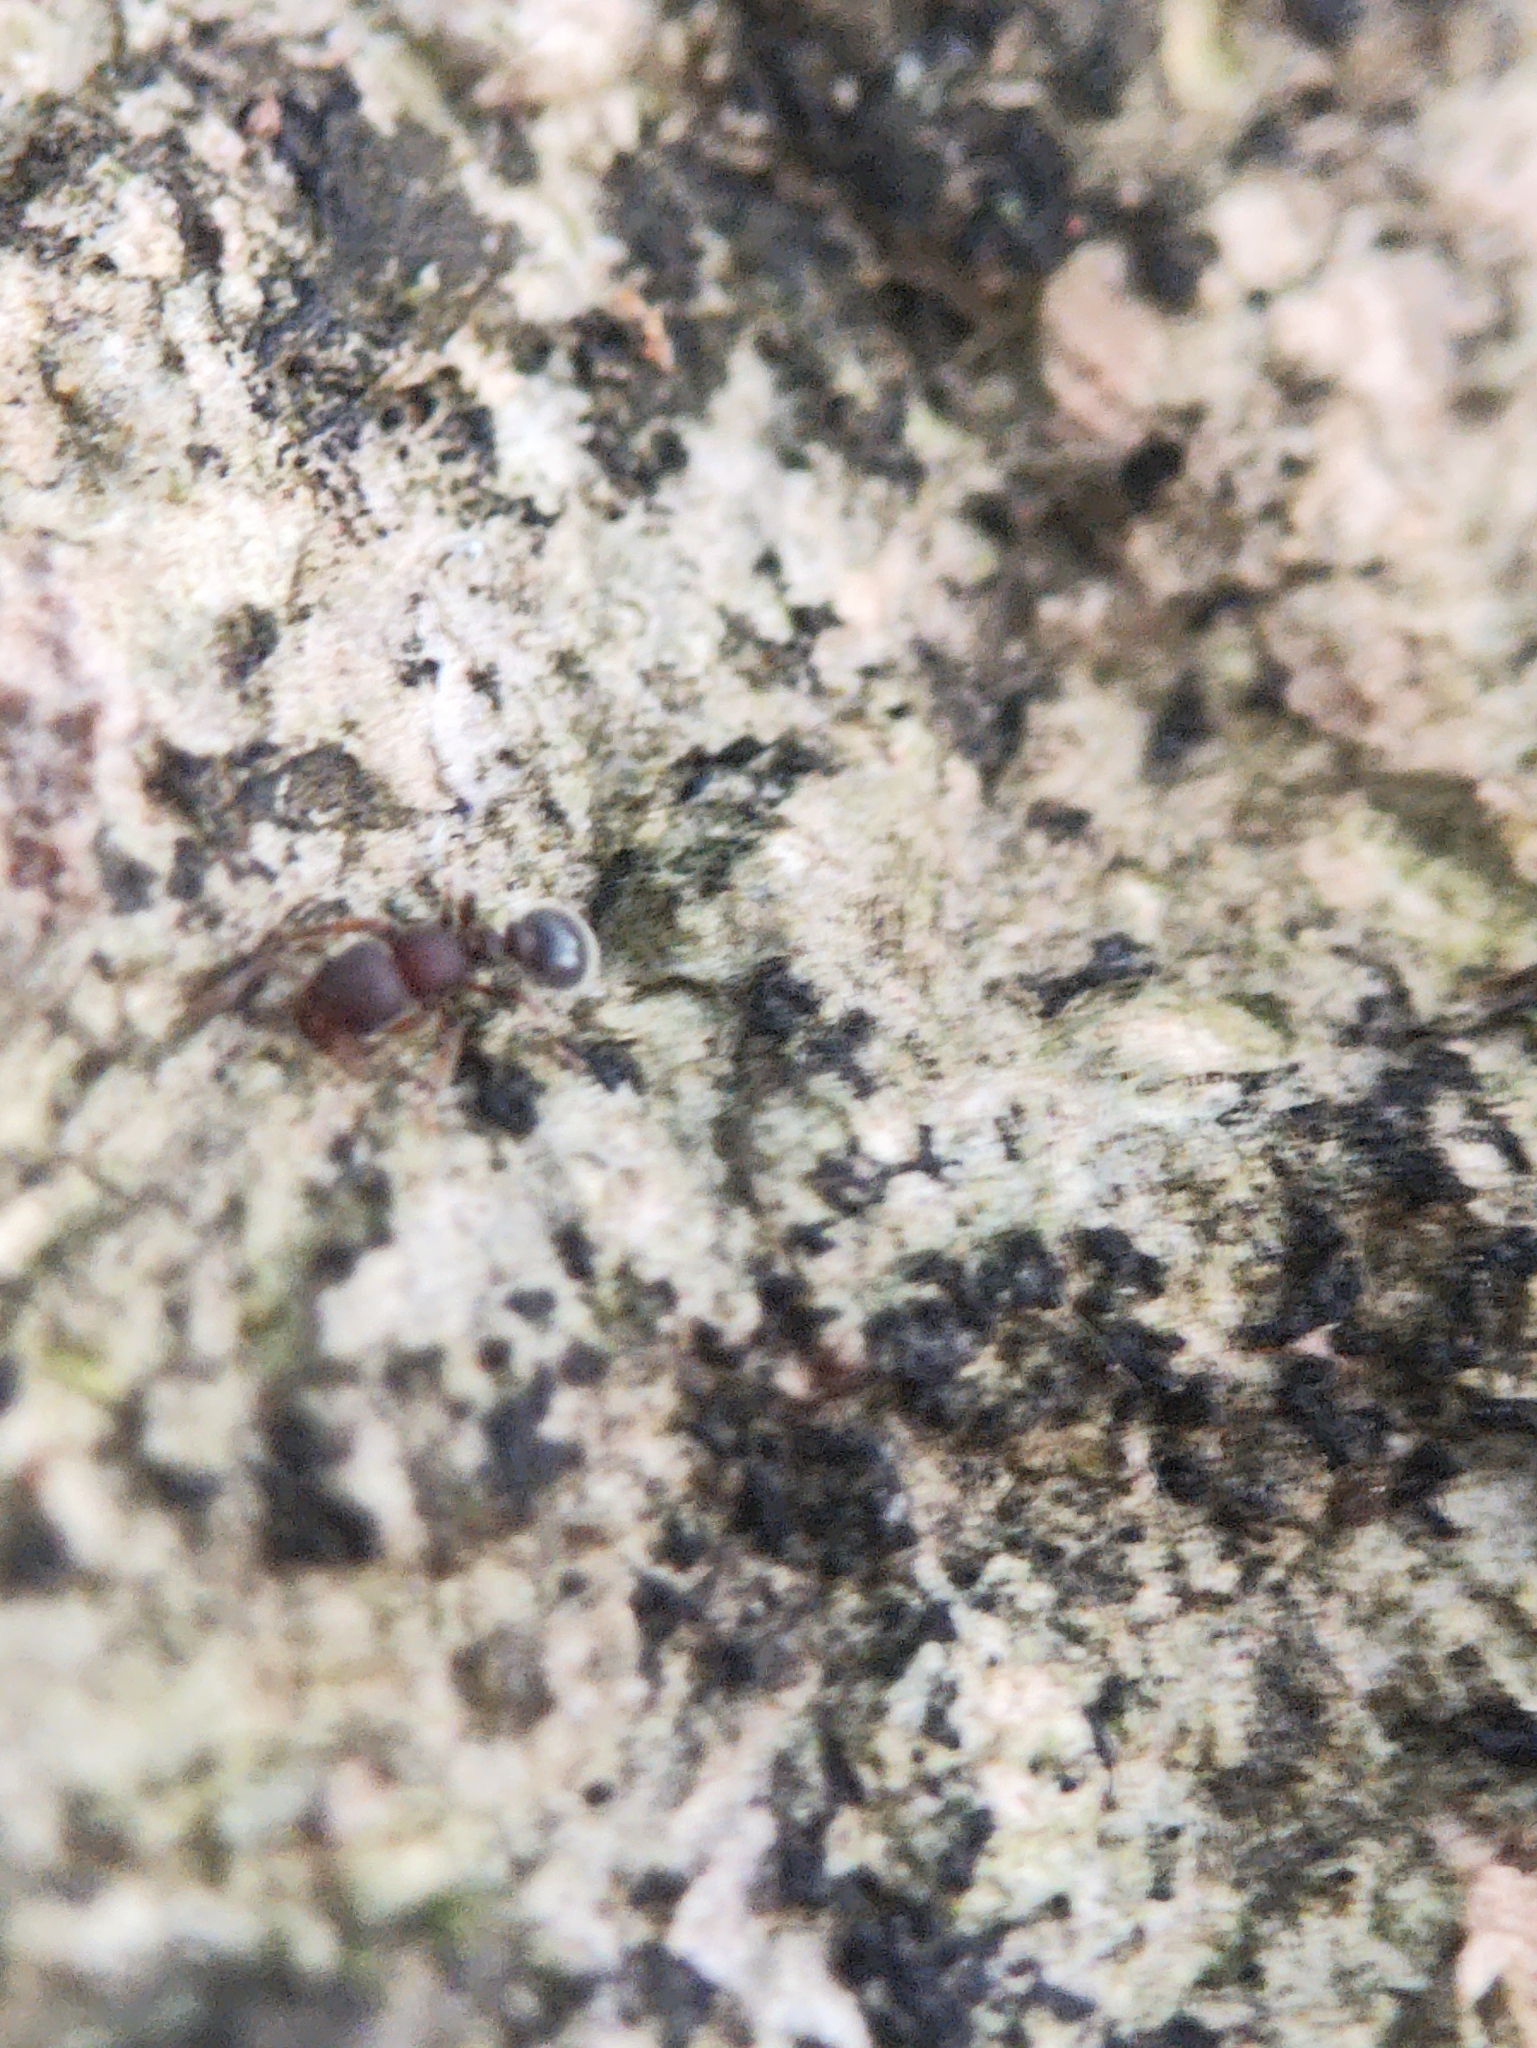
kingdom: Animalia
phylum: Arthropoda
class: Insecta
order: Hymenoptera
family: Formicidae
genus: Tetramorium
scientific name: Tetramorium walshi
